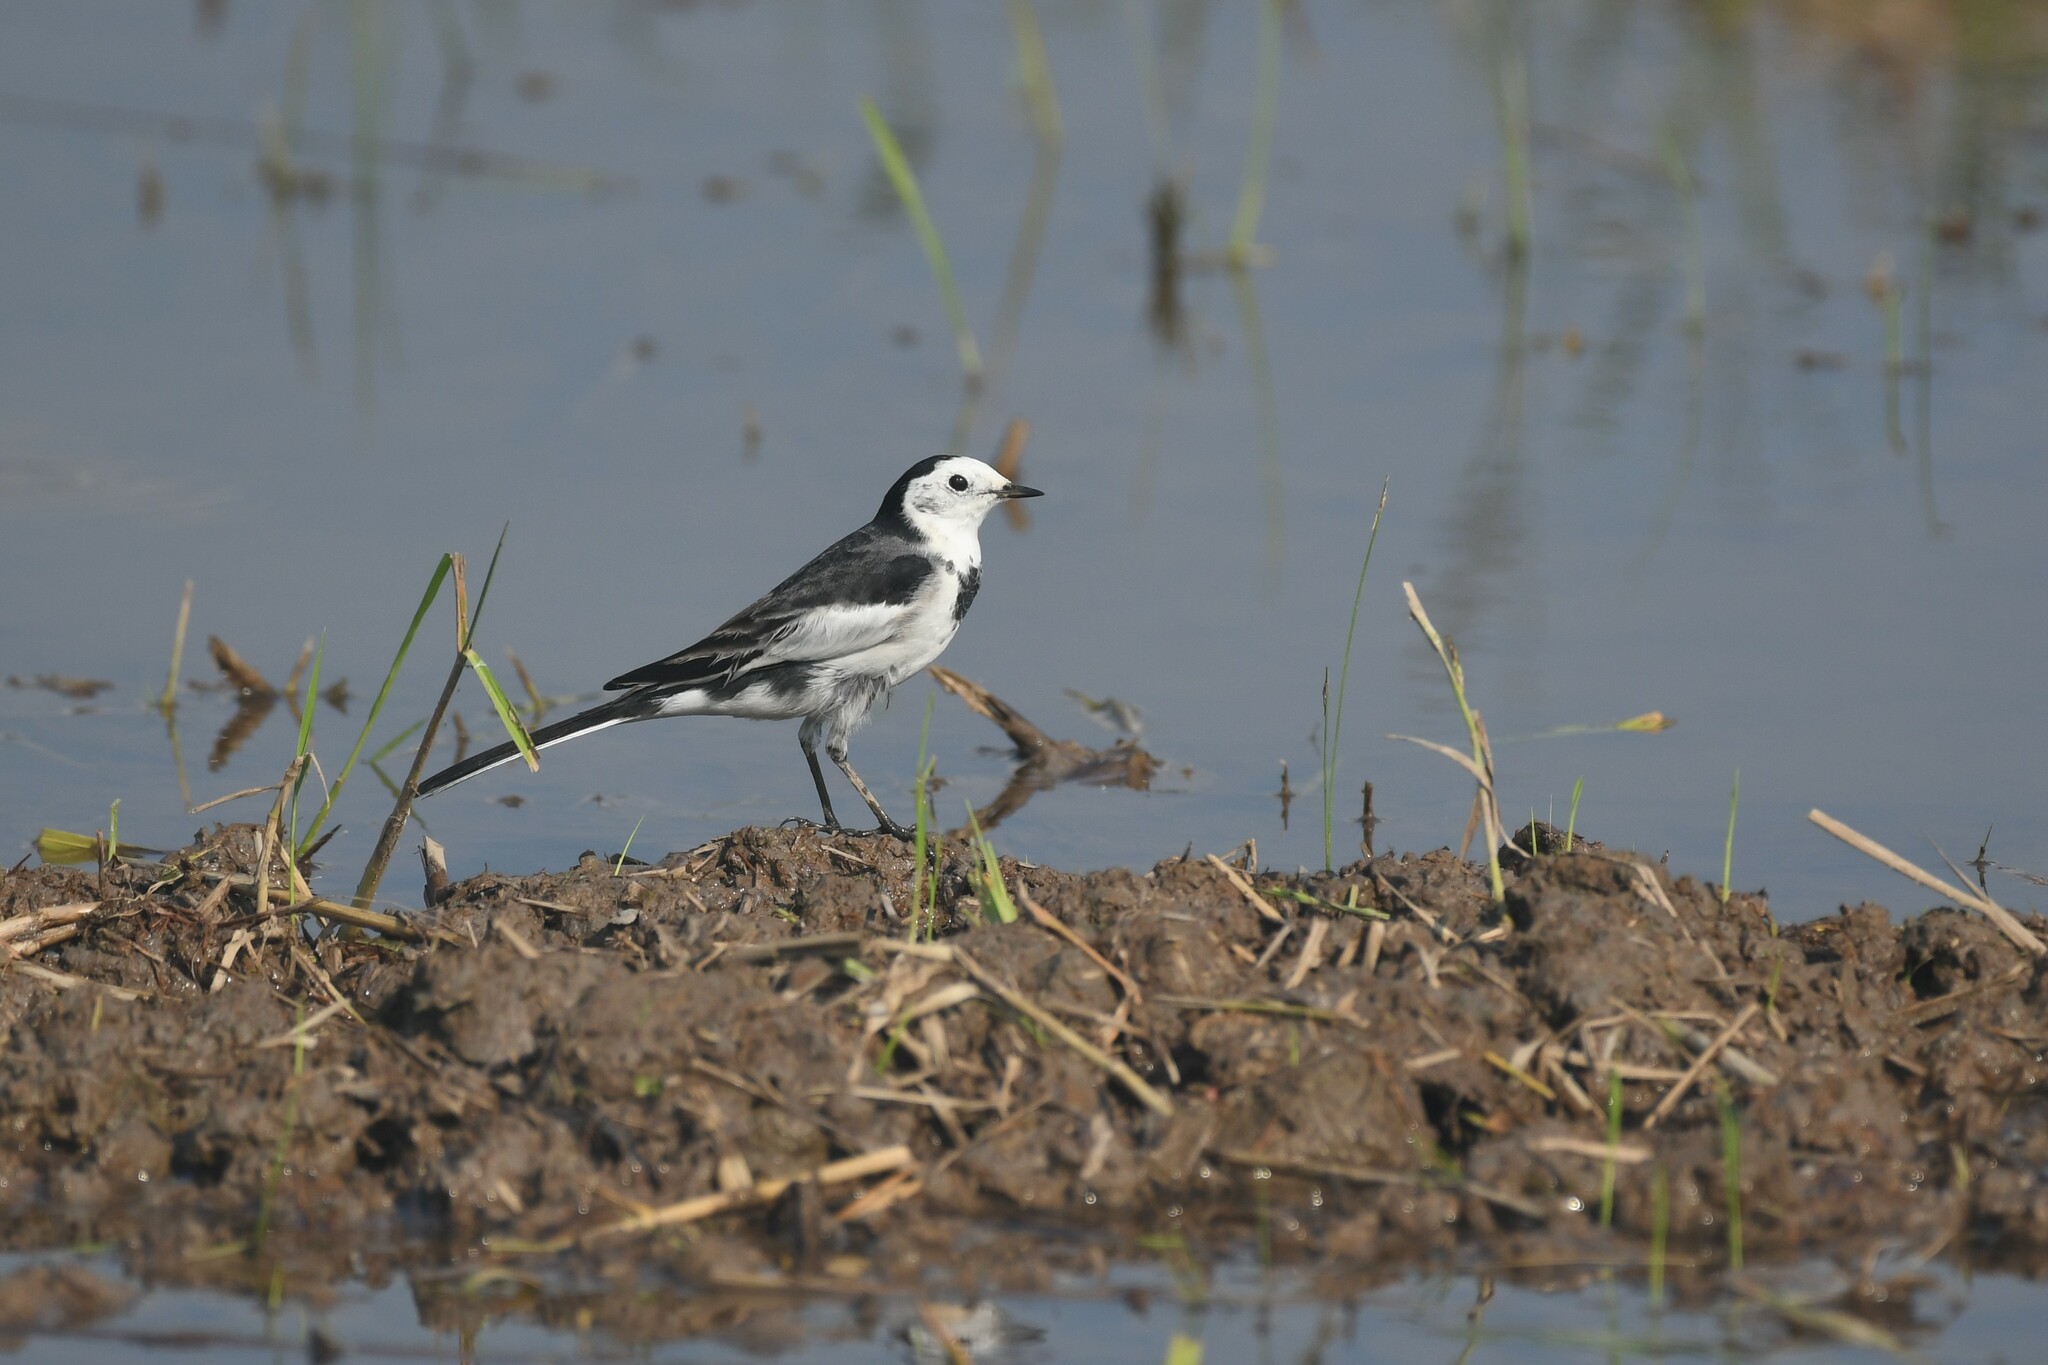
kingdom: Animalia
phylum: Chordata
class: Aves
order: Passeriformes
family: Motacillidae
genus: Motacilla
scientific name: Motacilla alba
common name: White wagtail
